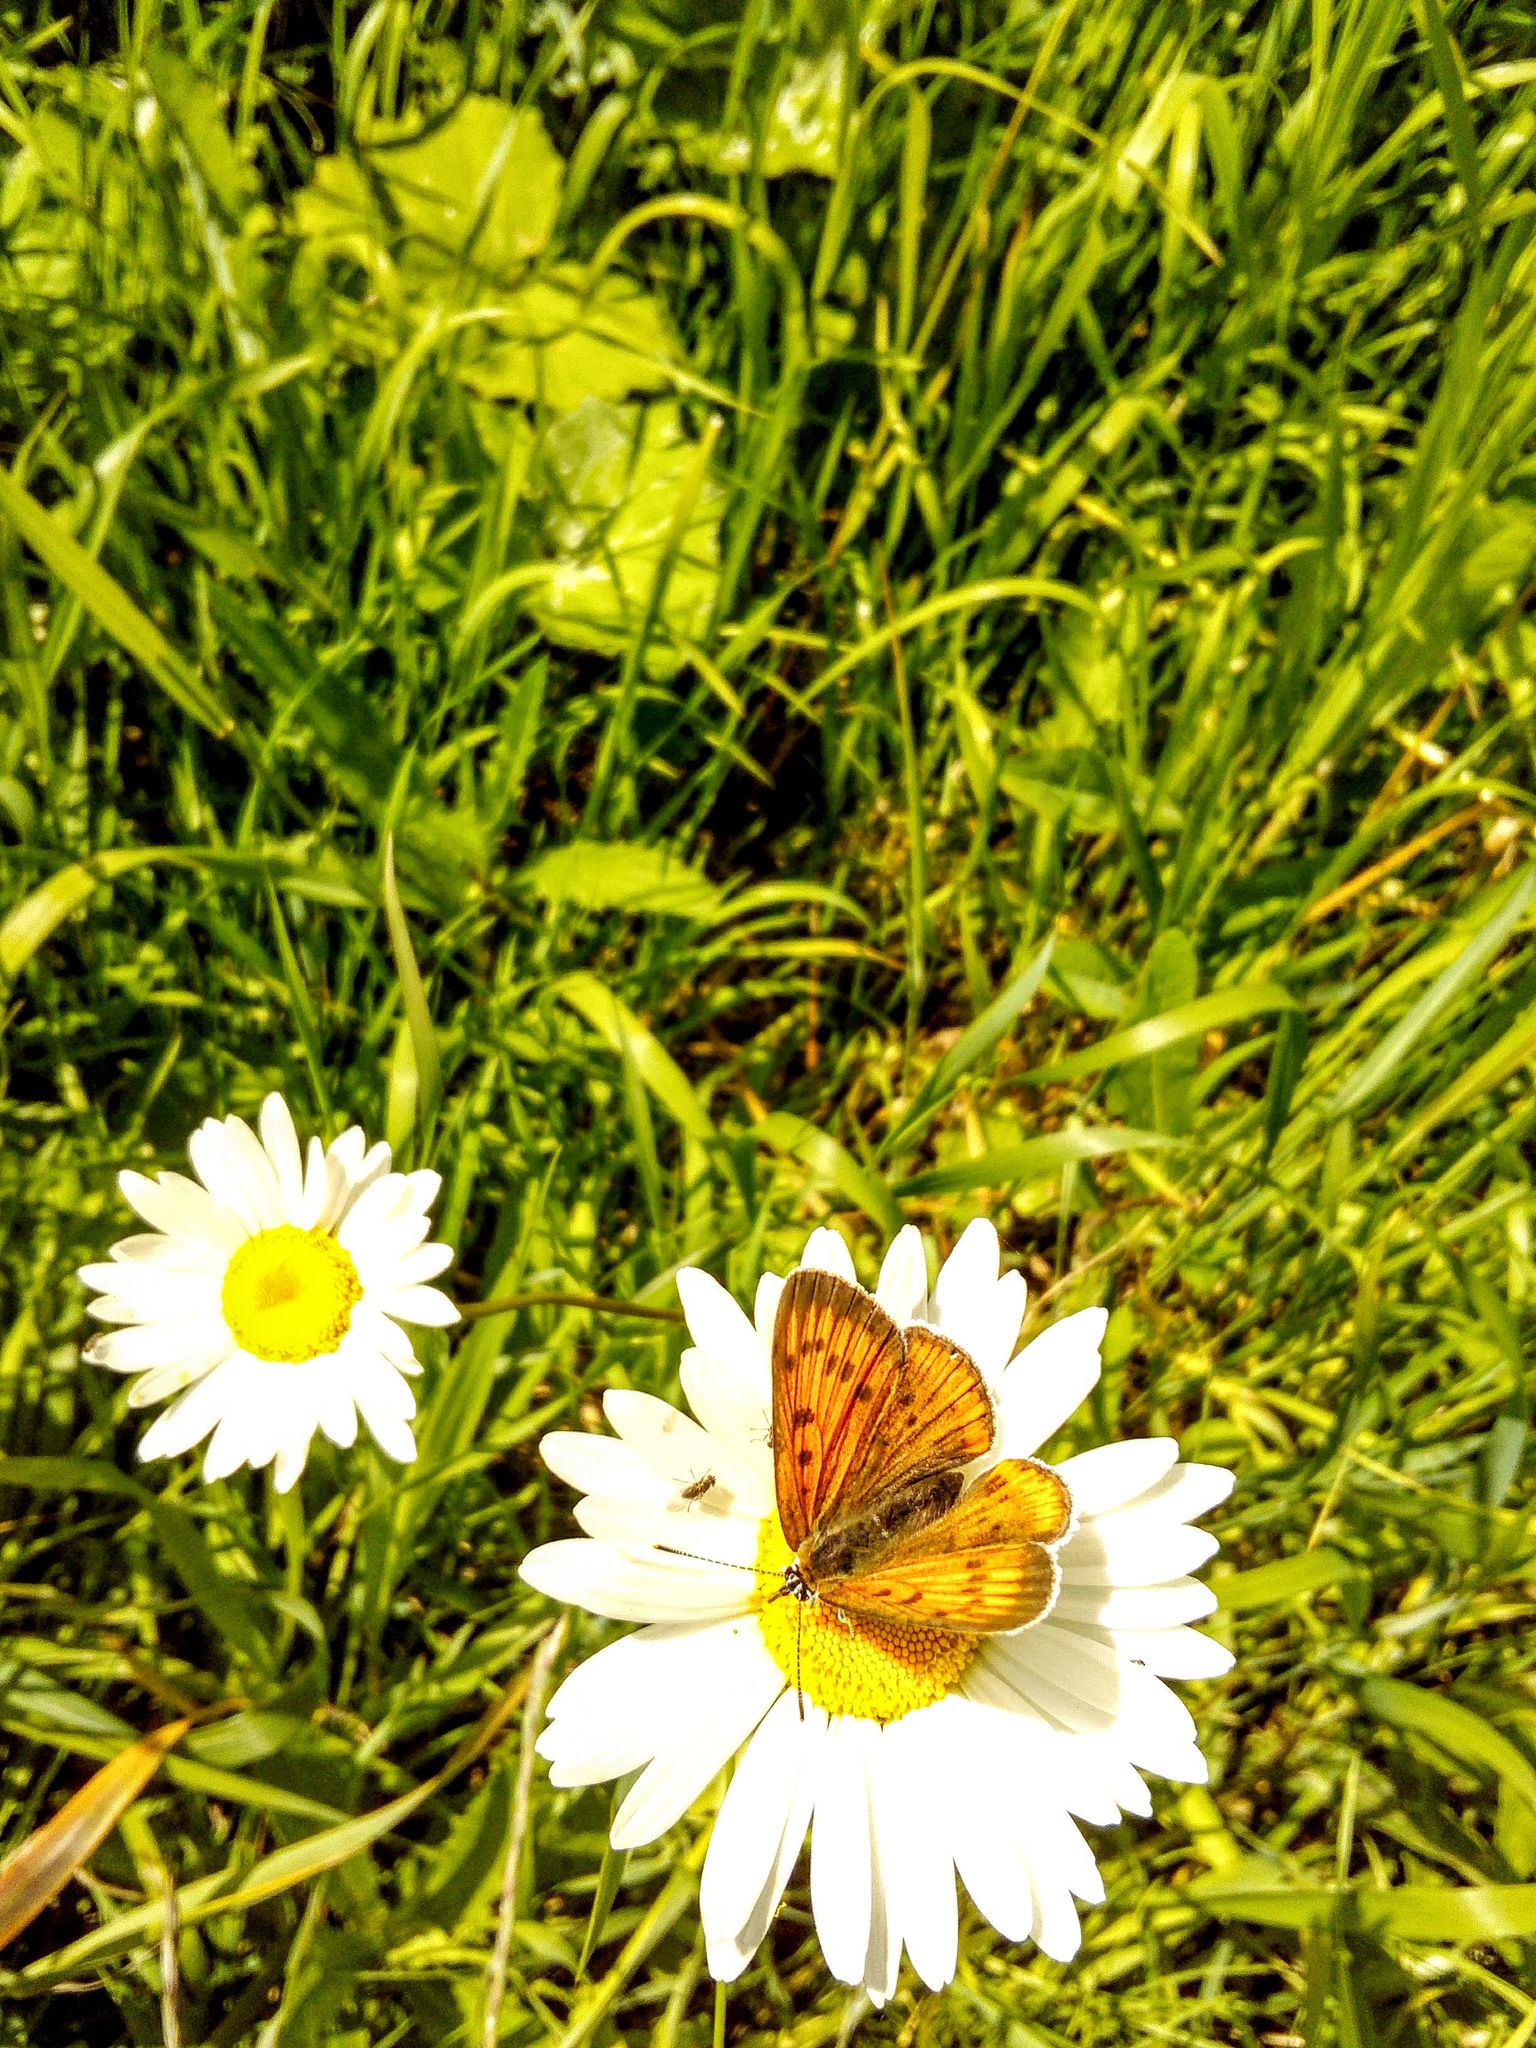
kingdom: Animalia
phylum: Arthropoda
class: Insecta
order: Lepidoptera
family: Lycaenidae
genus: Lycaena
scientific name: Lycaena dispar
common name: Large copper
